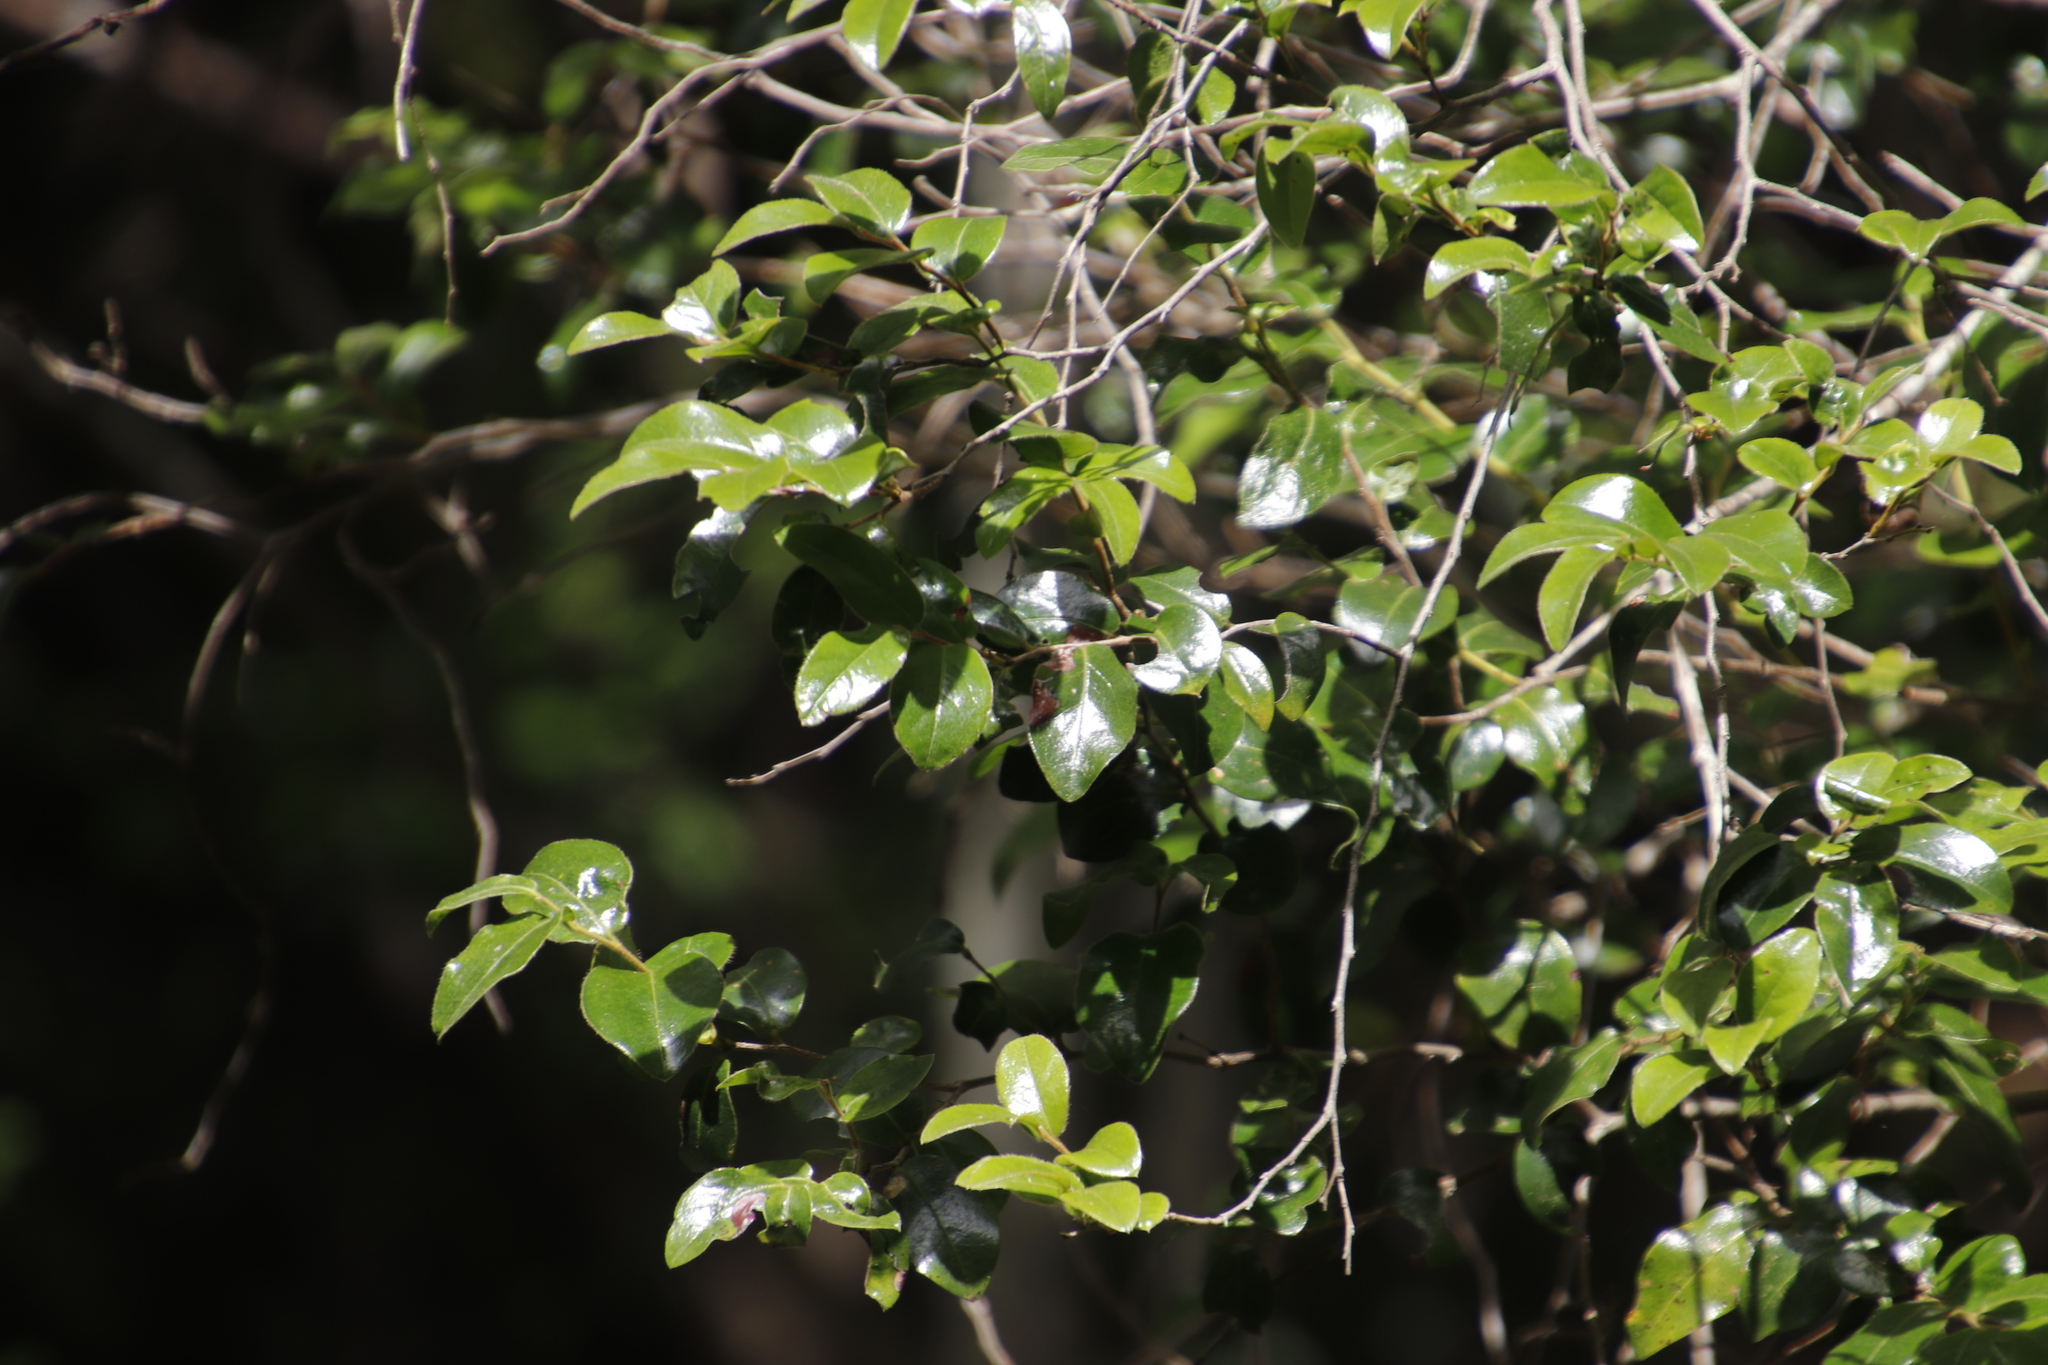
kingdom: Plantae
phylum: Tracheophyta
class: Magnoliopsida
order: Ericales
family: Ebenaceae
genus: Diospyros
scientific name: Diospyros whyteana
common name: Bladder-nut
